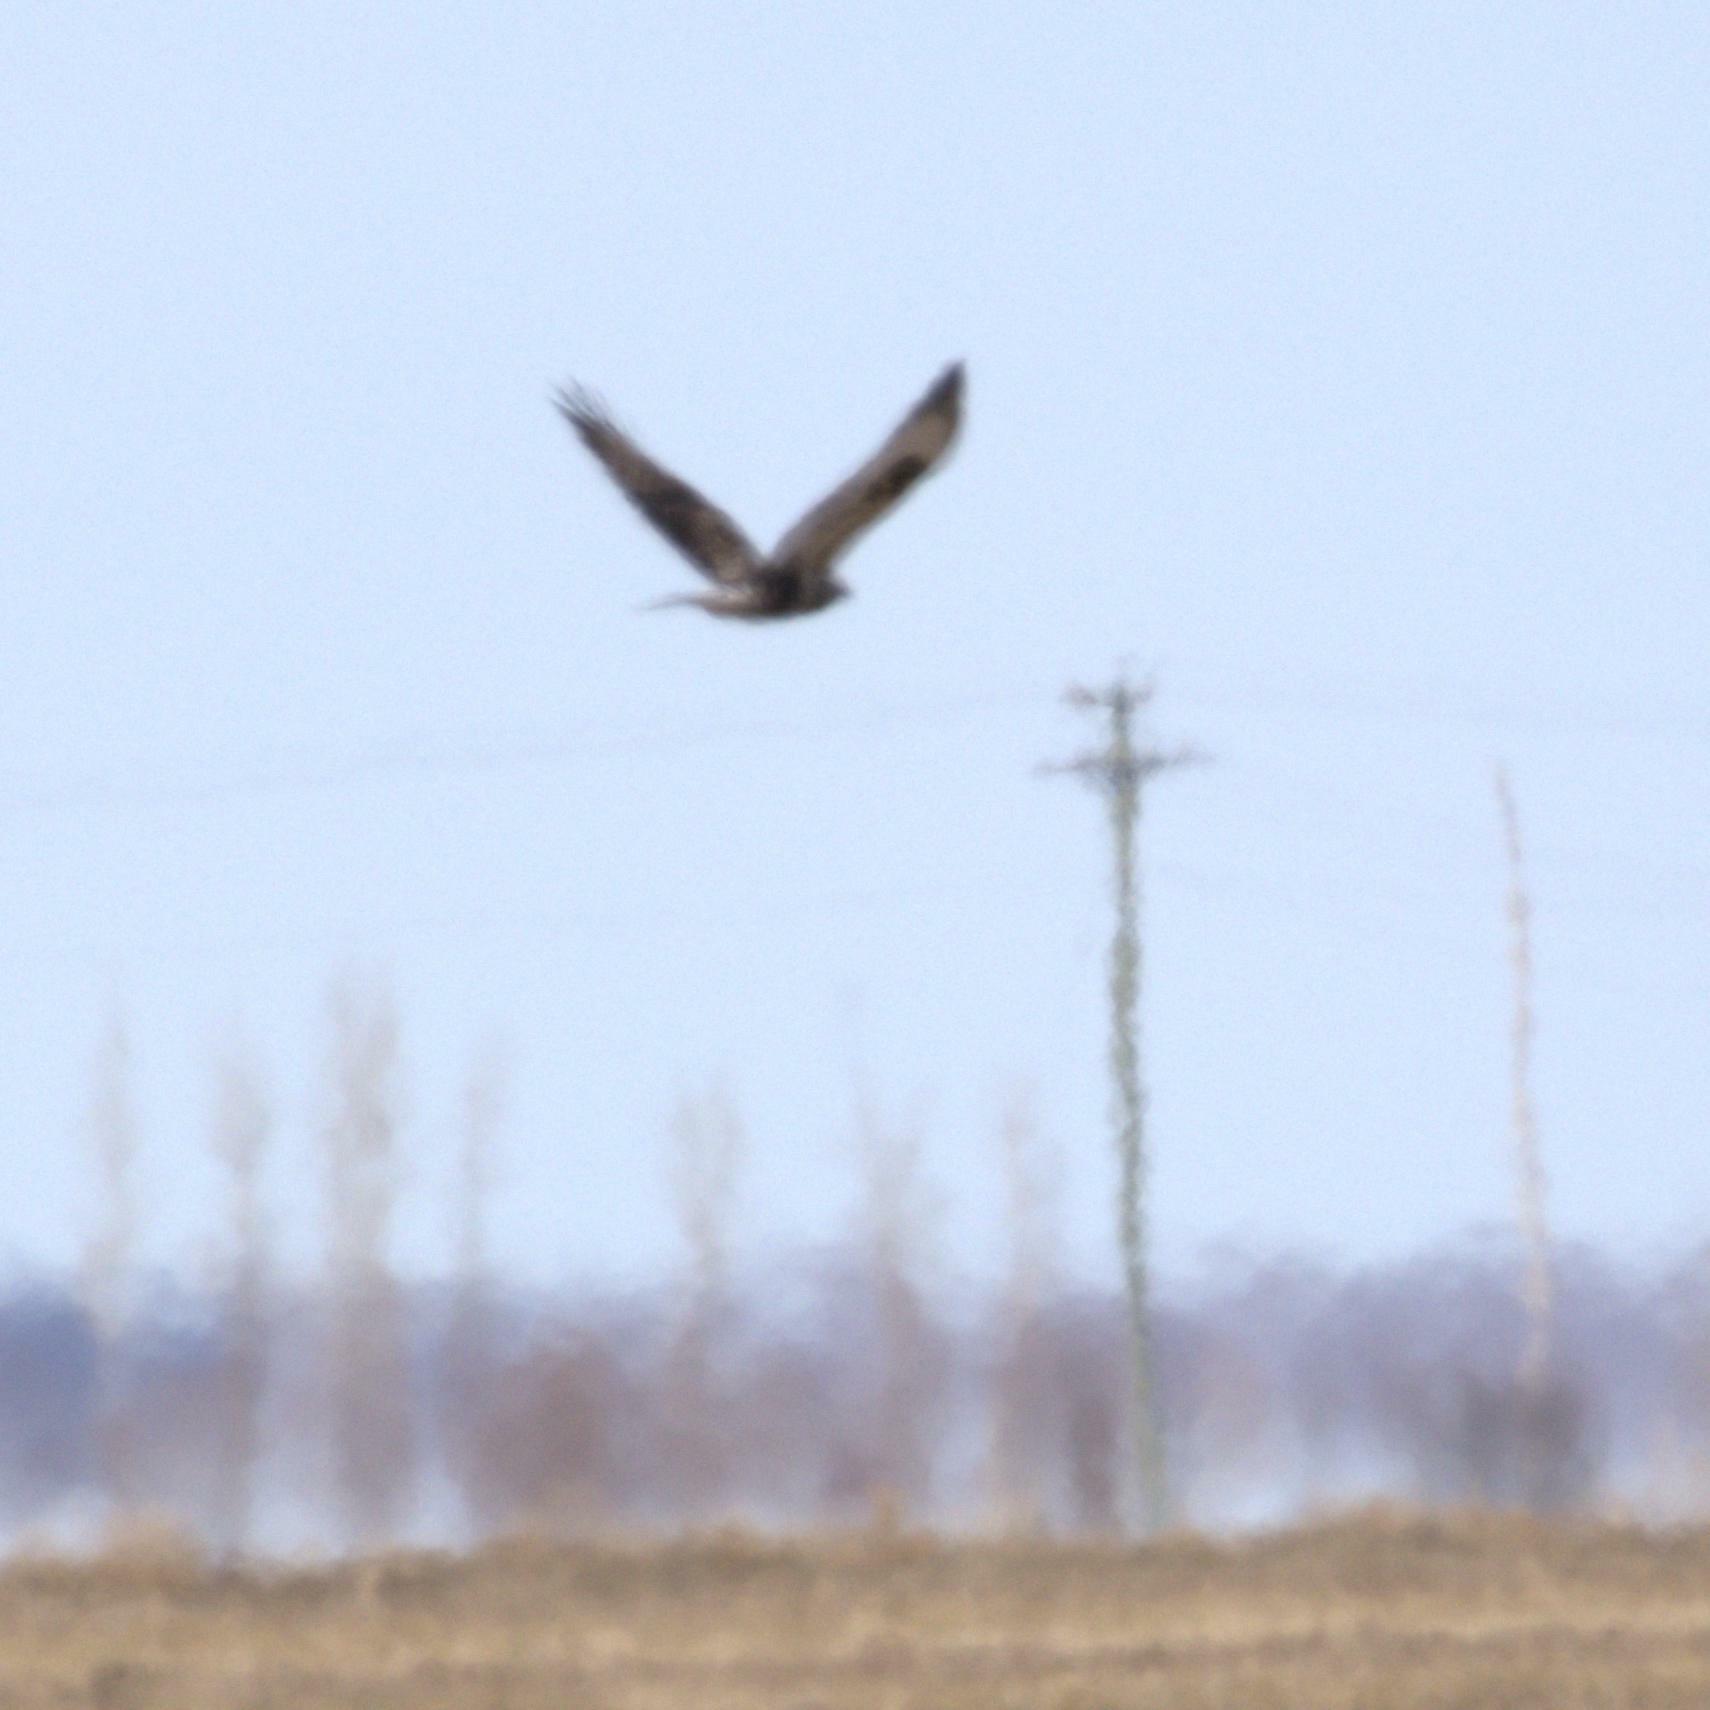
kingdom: Animalia
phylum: Chordata
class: Aves
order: Accipitriformes
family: Accipitridae
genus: Buteo
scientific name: Buteo lagopus
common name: Rough-legged buzzard
